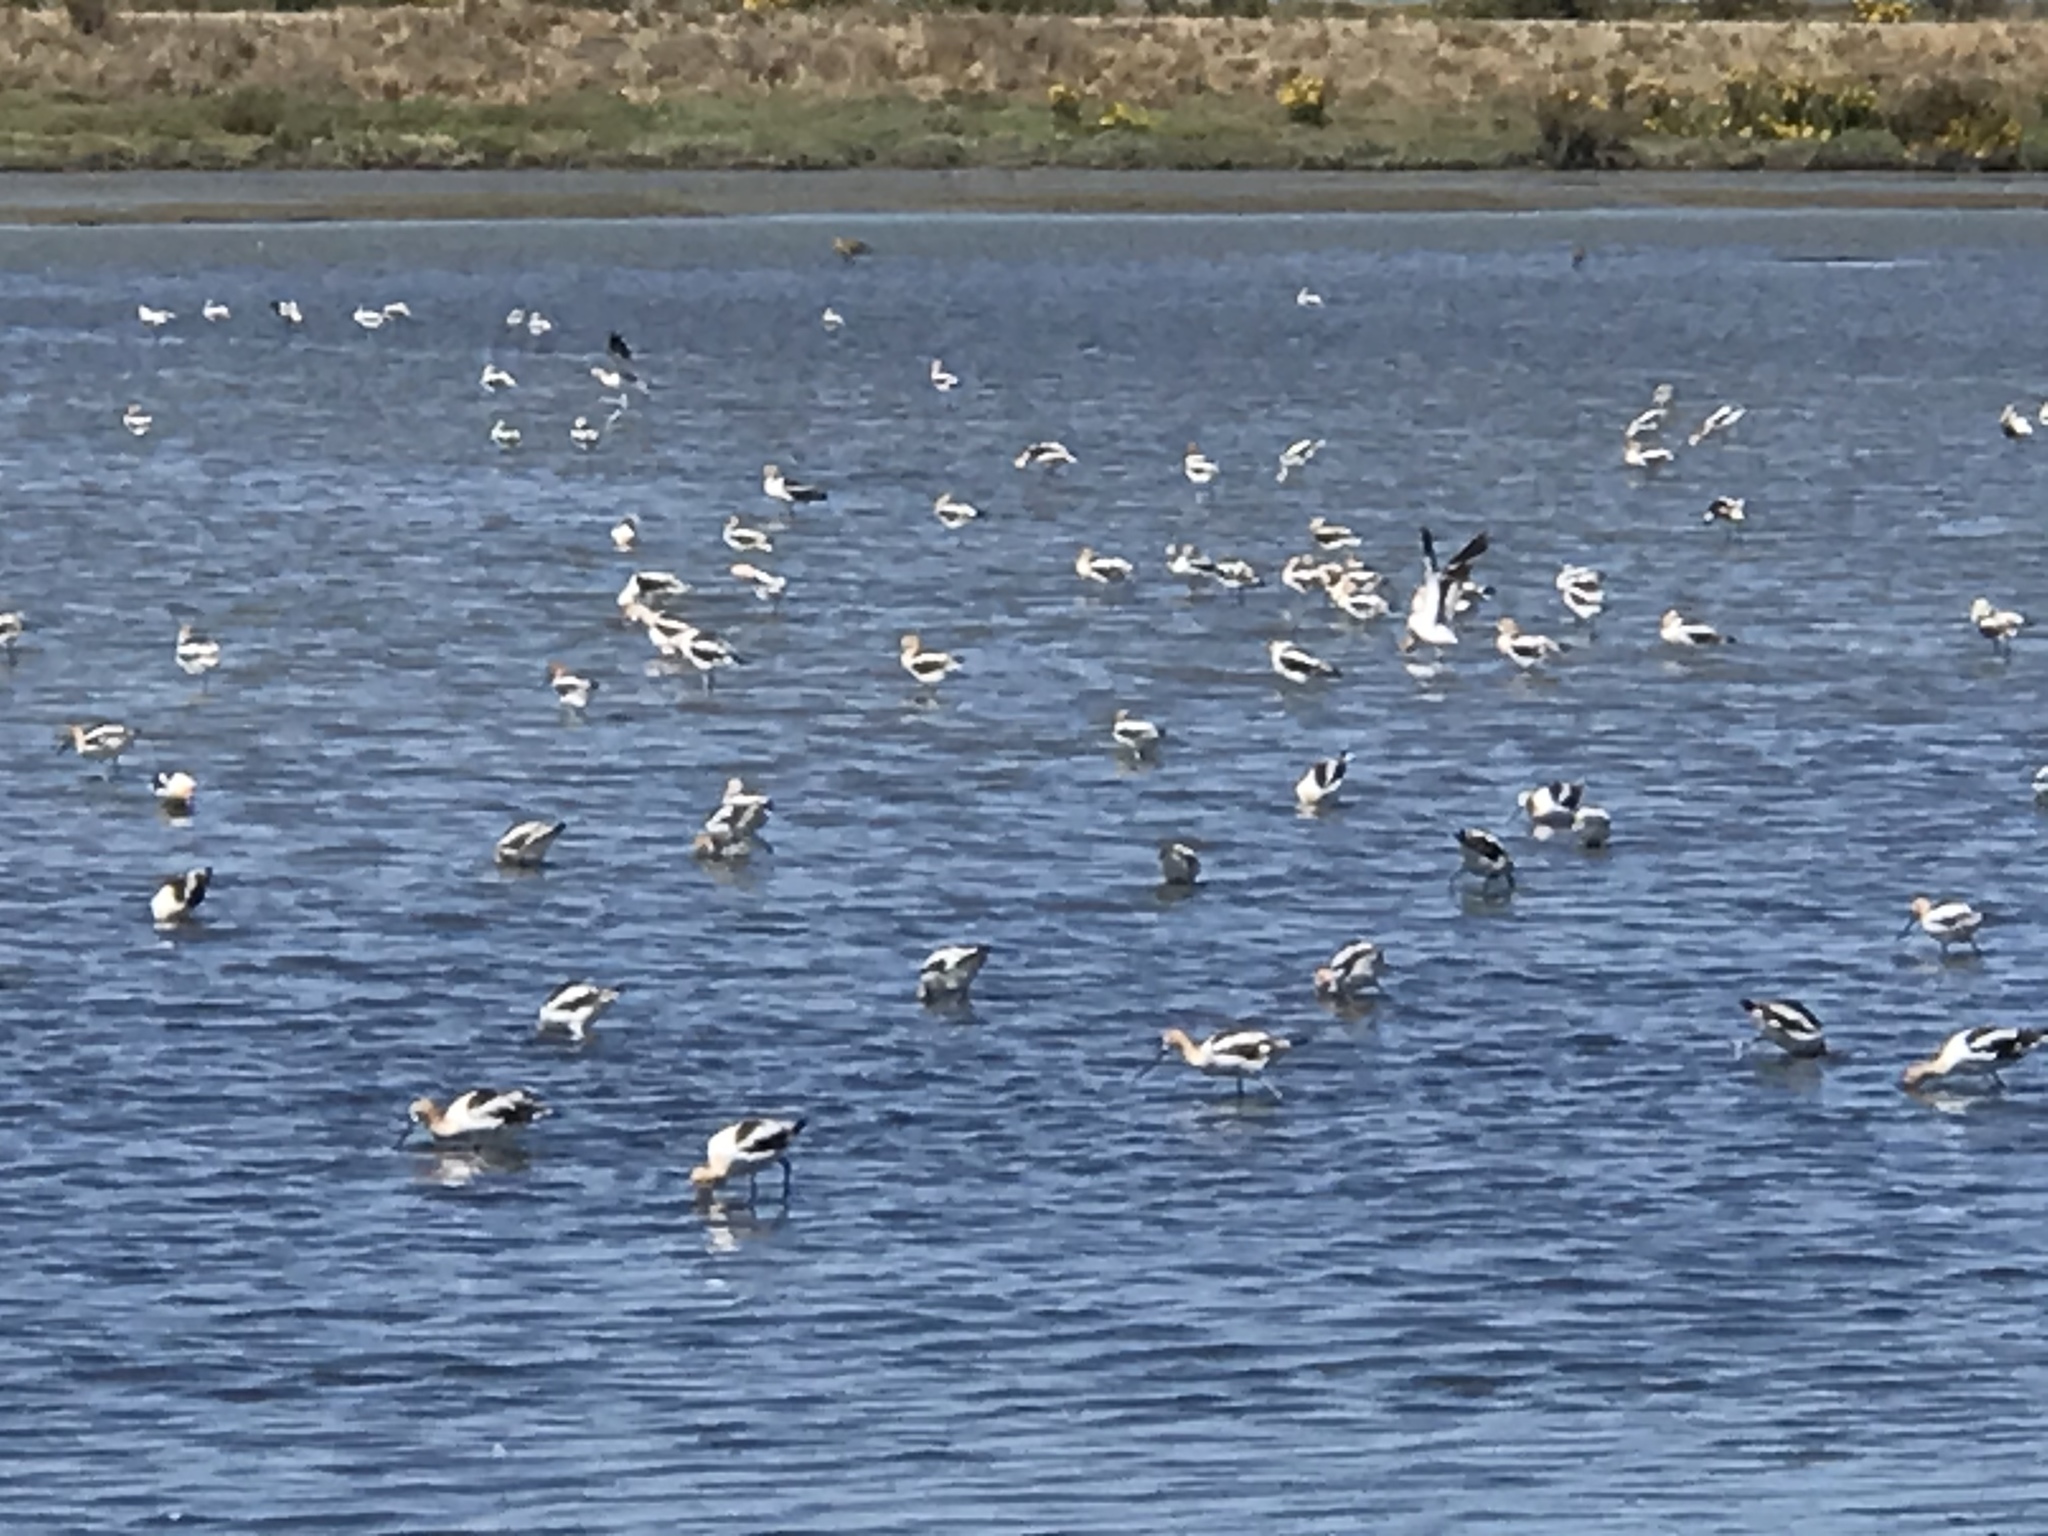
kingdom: Animalia
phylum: Chordata
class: Aves
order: Charadriiformes
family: Recurvirostridae
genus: Recurvirostra
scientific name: Recurvirostra americana
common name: American avocet
